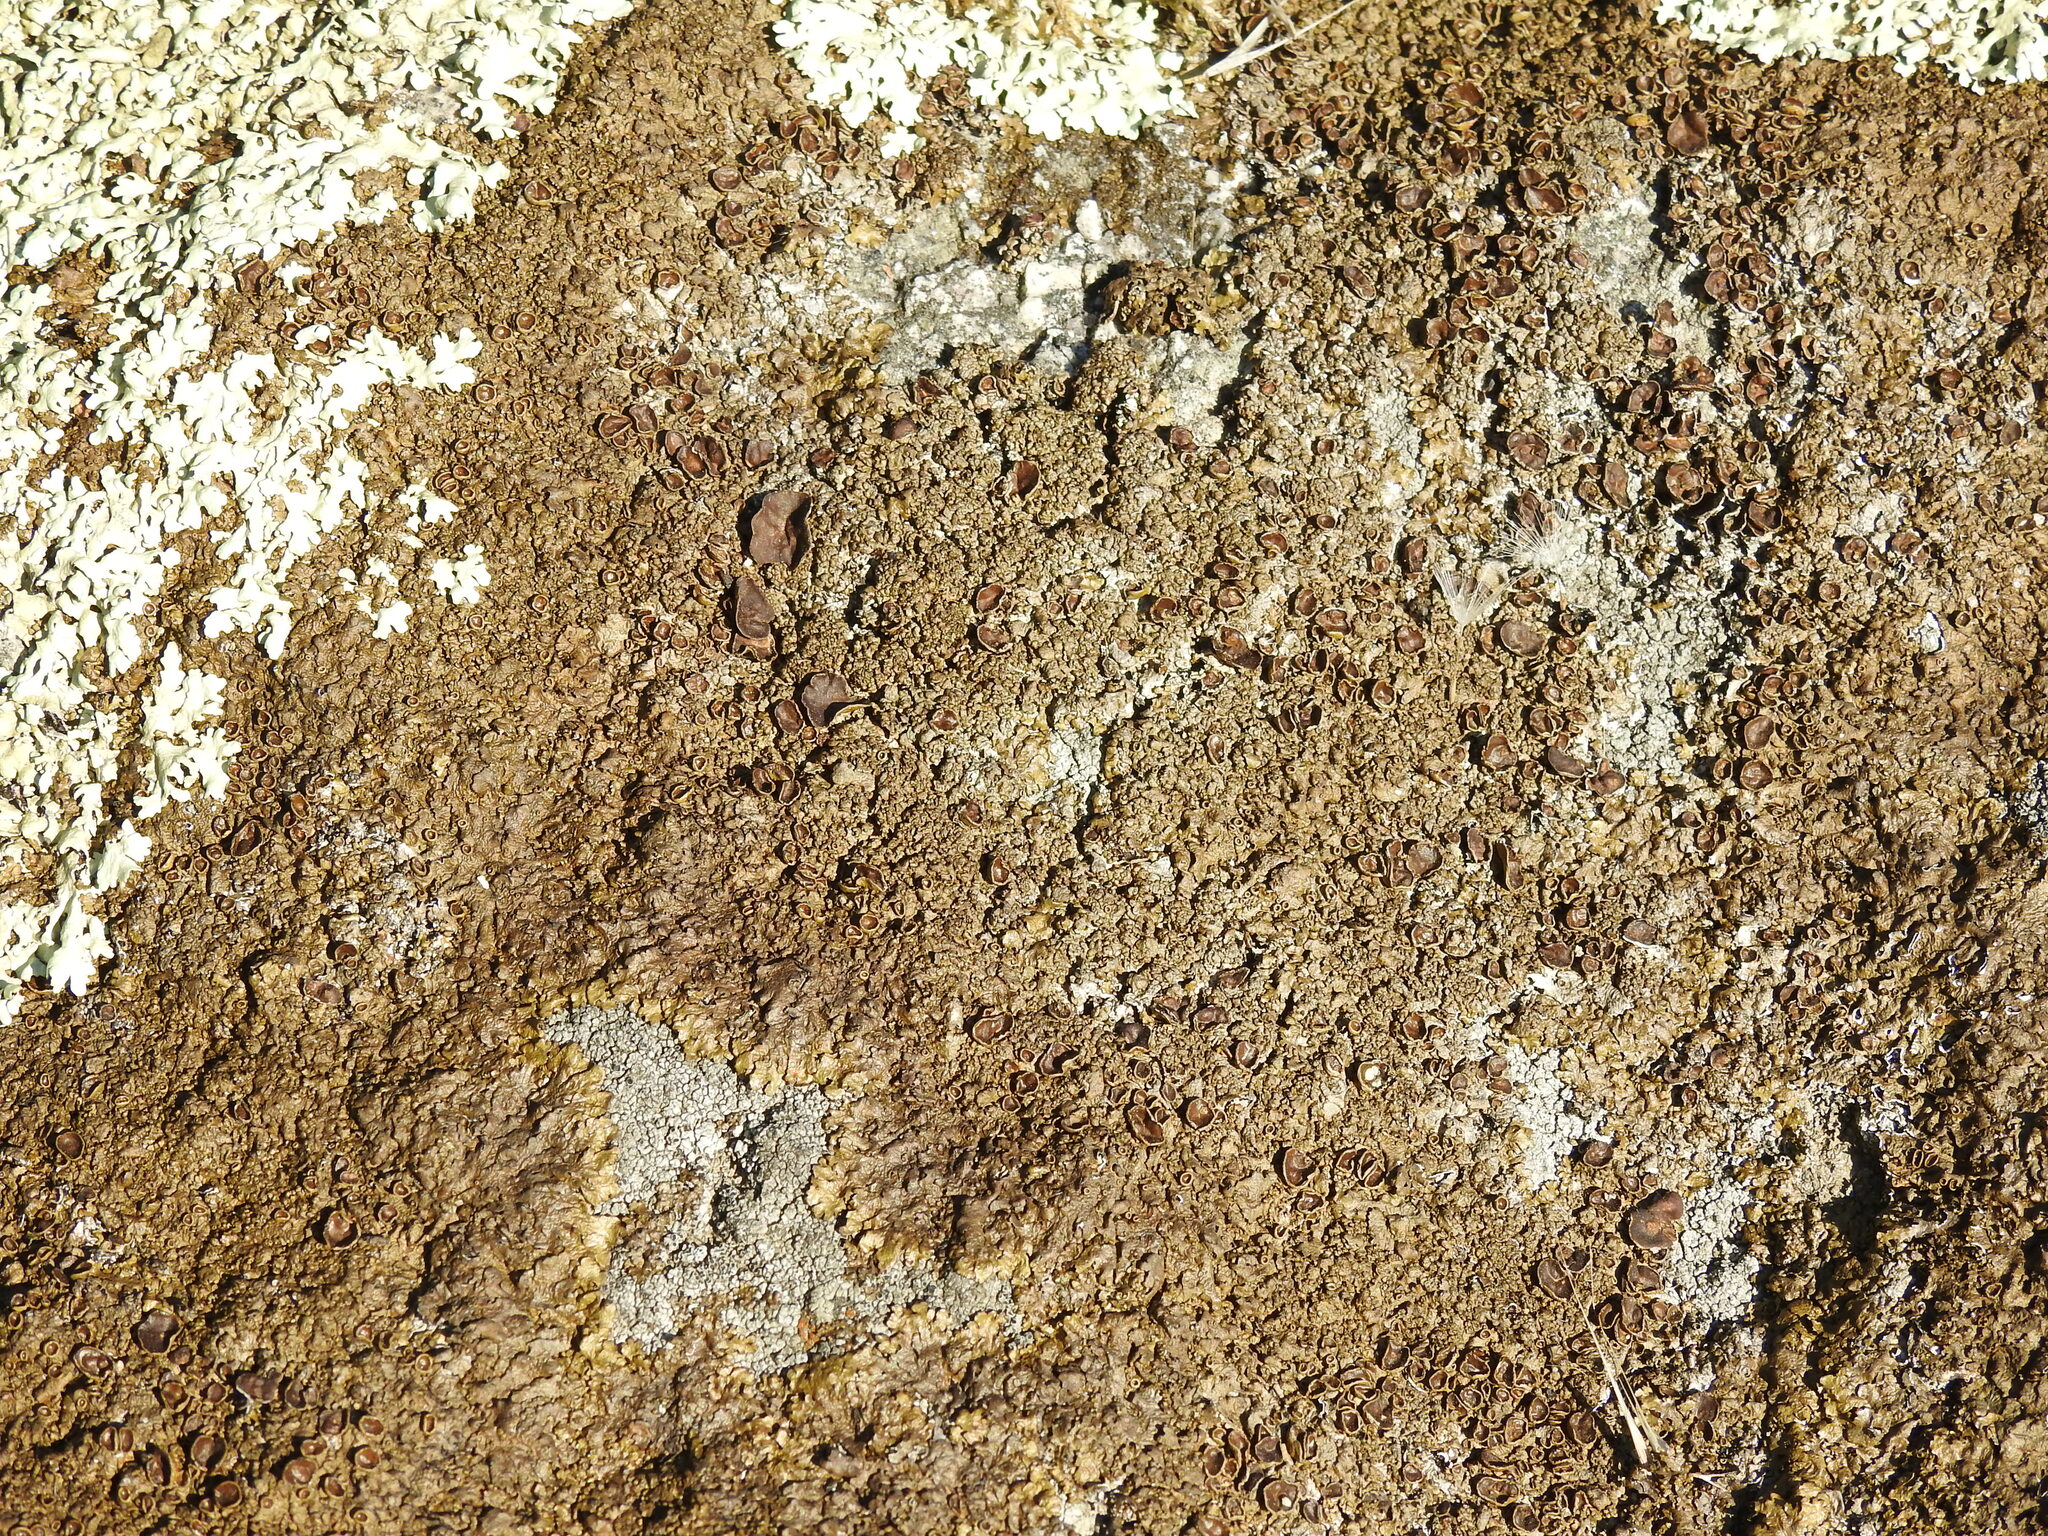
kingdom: Fungi
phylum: Ascomycota
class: Lecanoromycetes
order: Lecanorales
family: Parmeliaceae
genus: Xanthoparmelia
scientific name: Xanthoparmelia pulla
